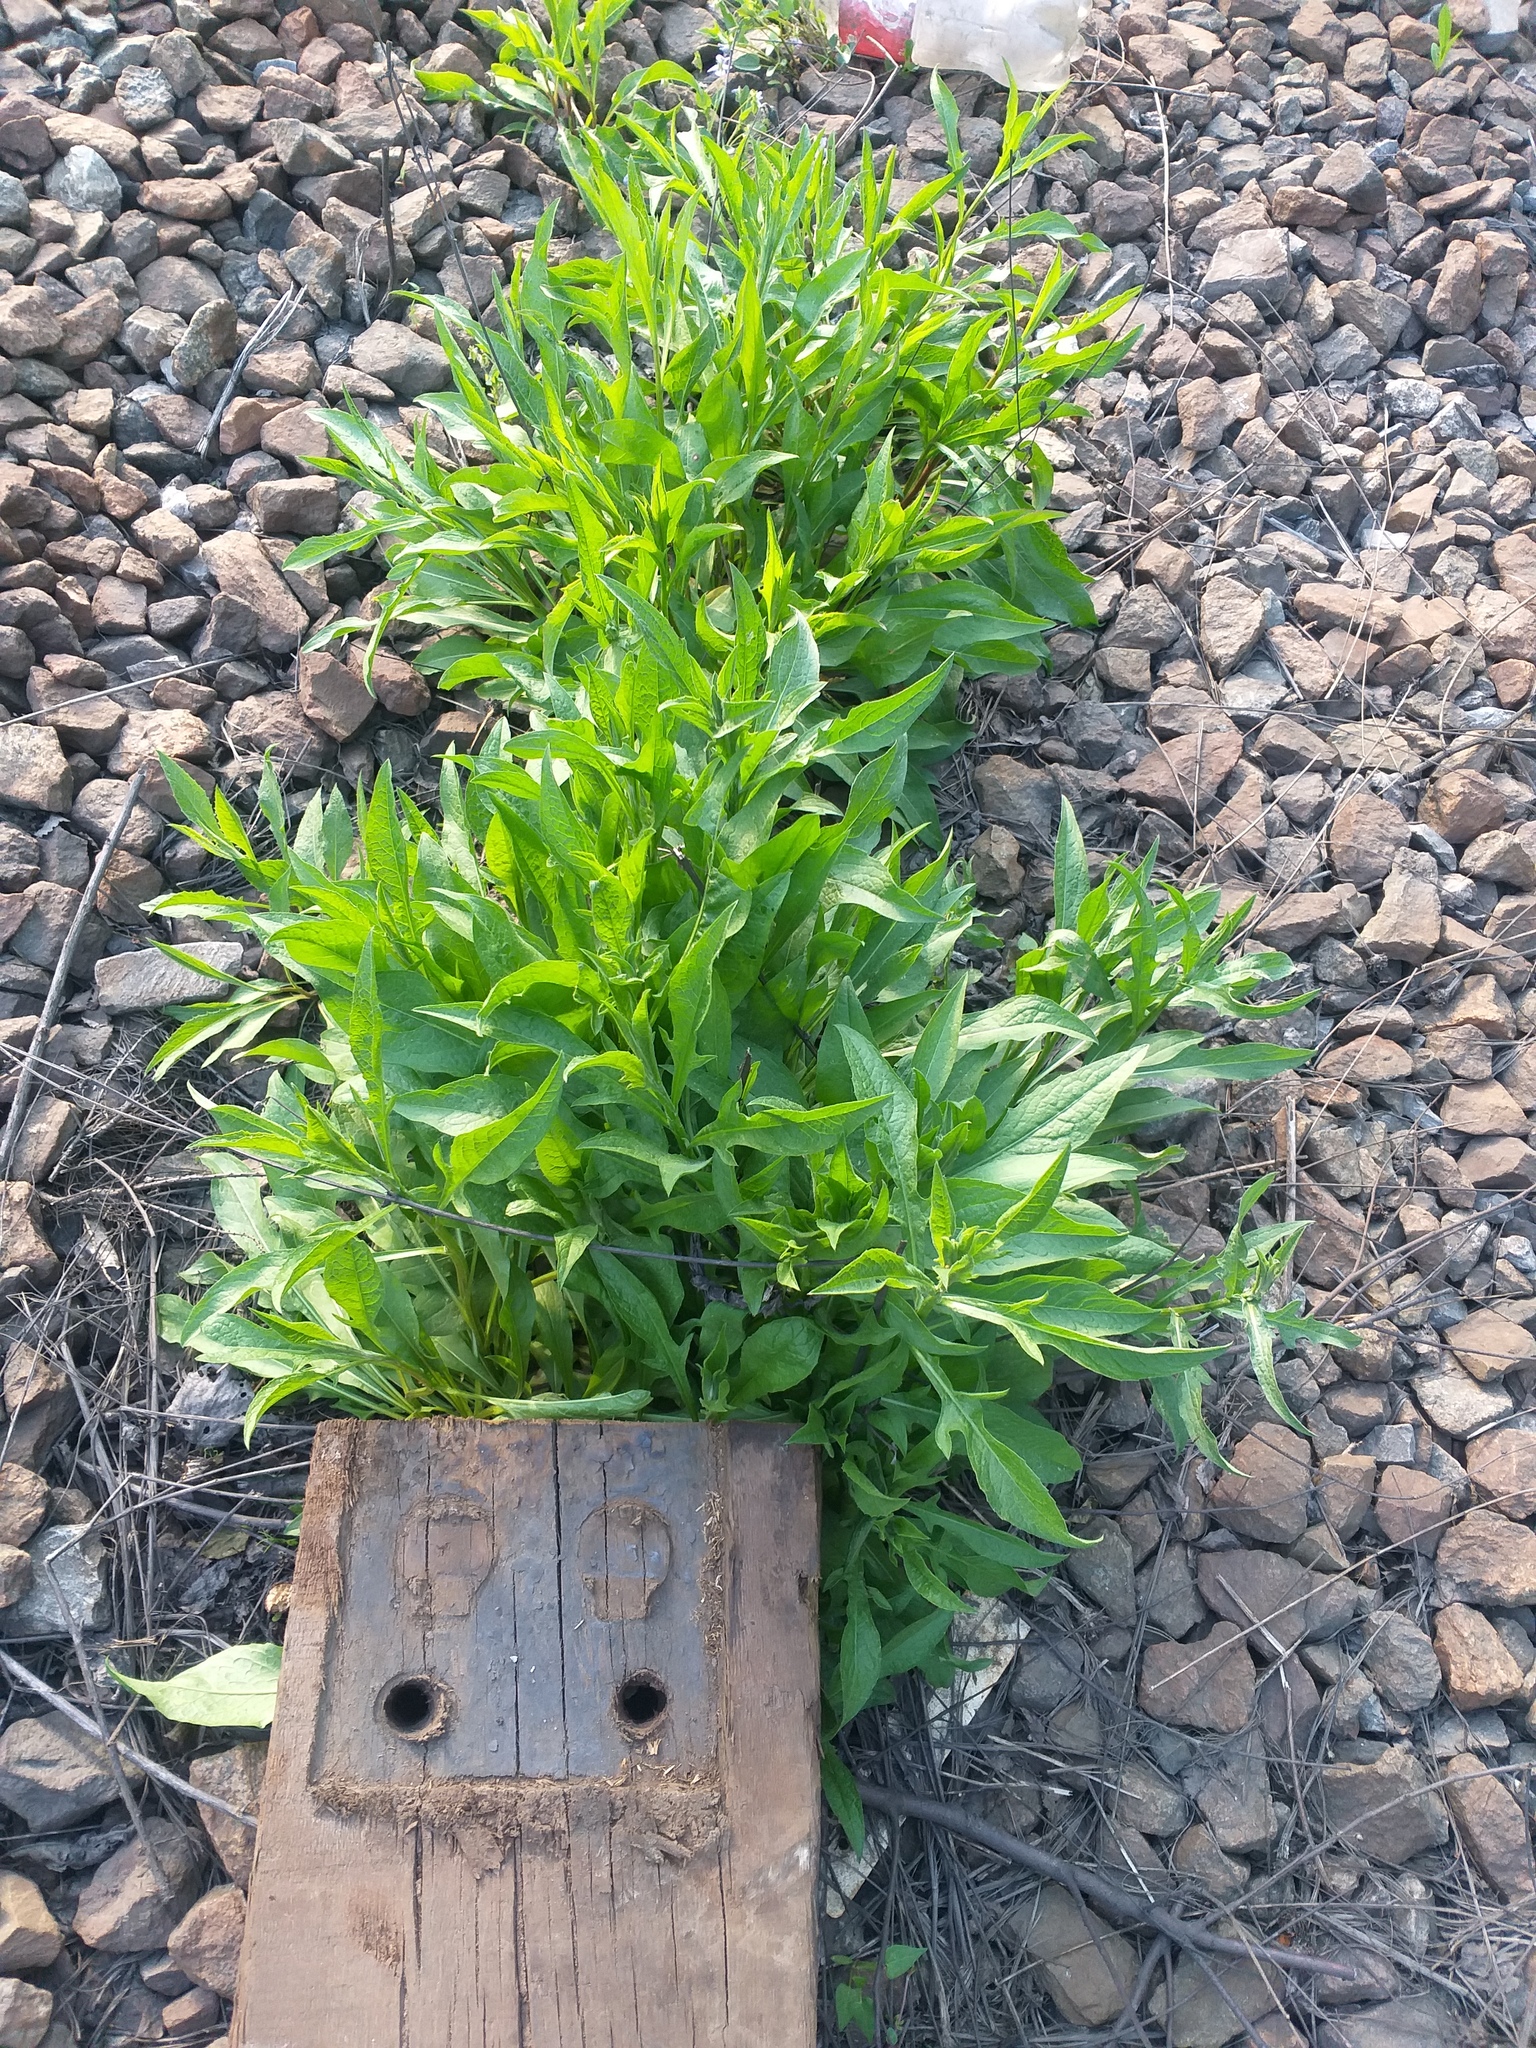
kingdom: Plantae
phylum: Tracheophyta
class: Magnoliopsida
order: Asterales
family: Asteraceae
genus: Centaurea
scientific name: Centaurea jacea
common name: Brown knapweed
